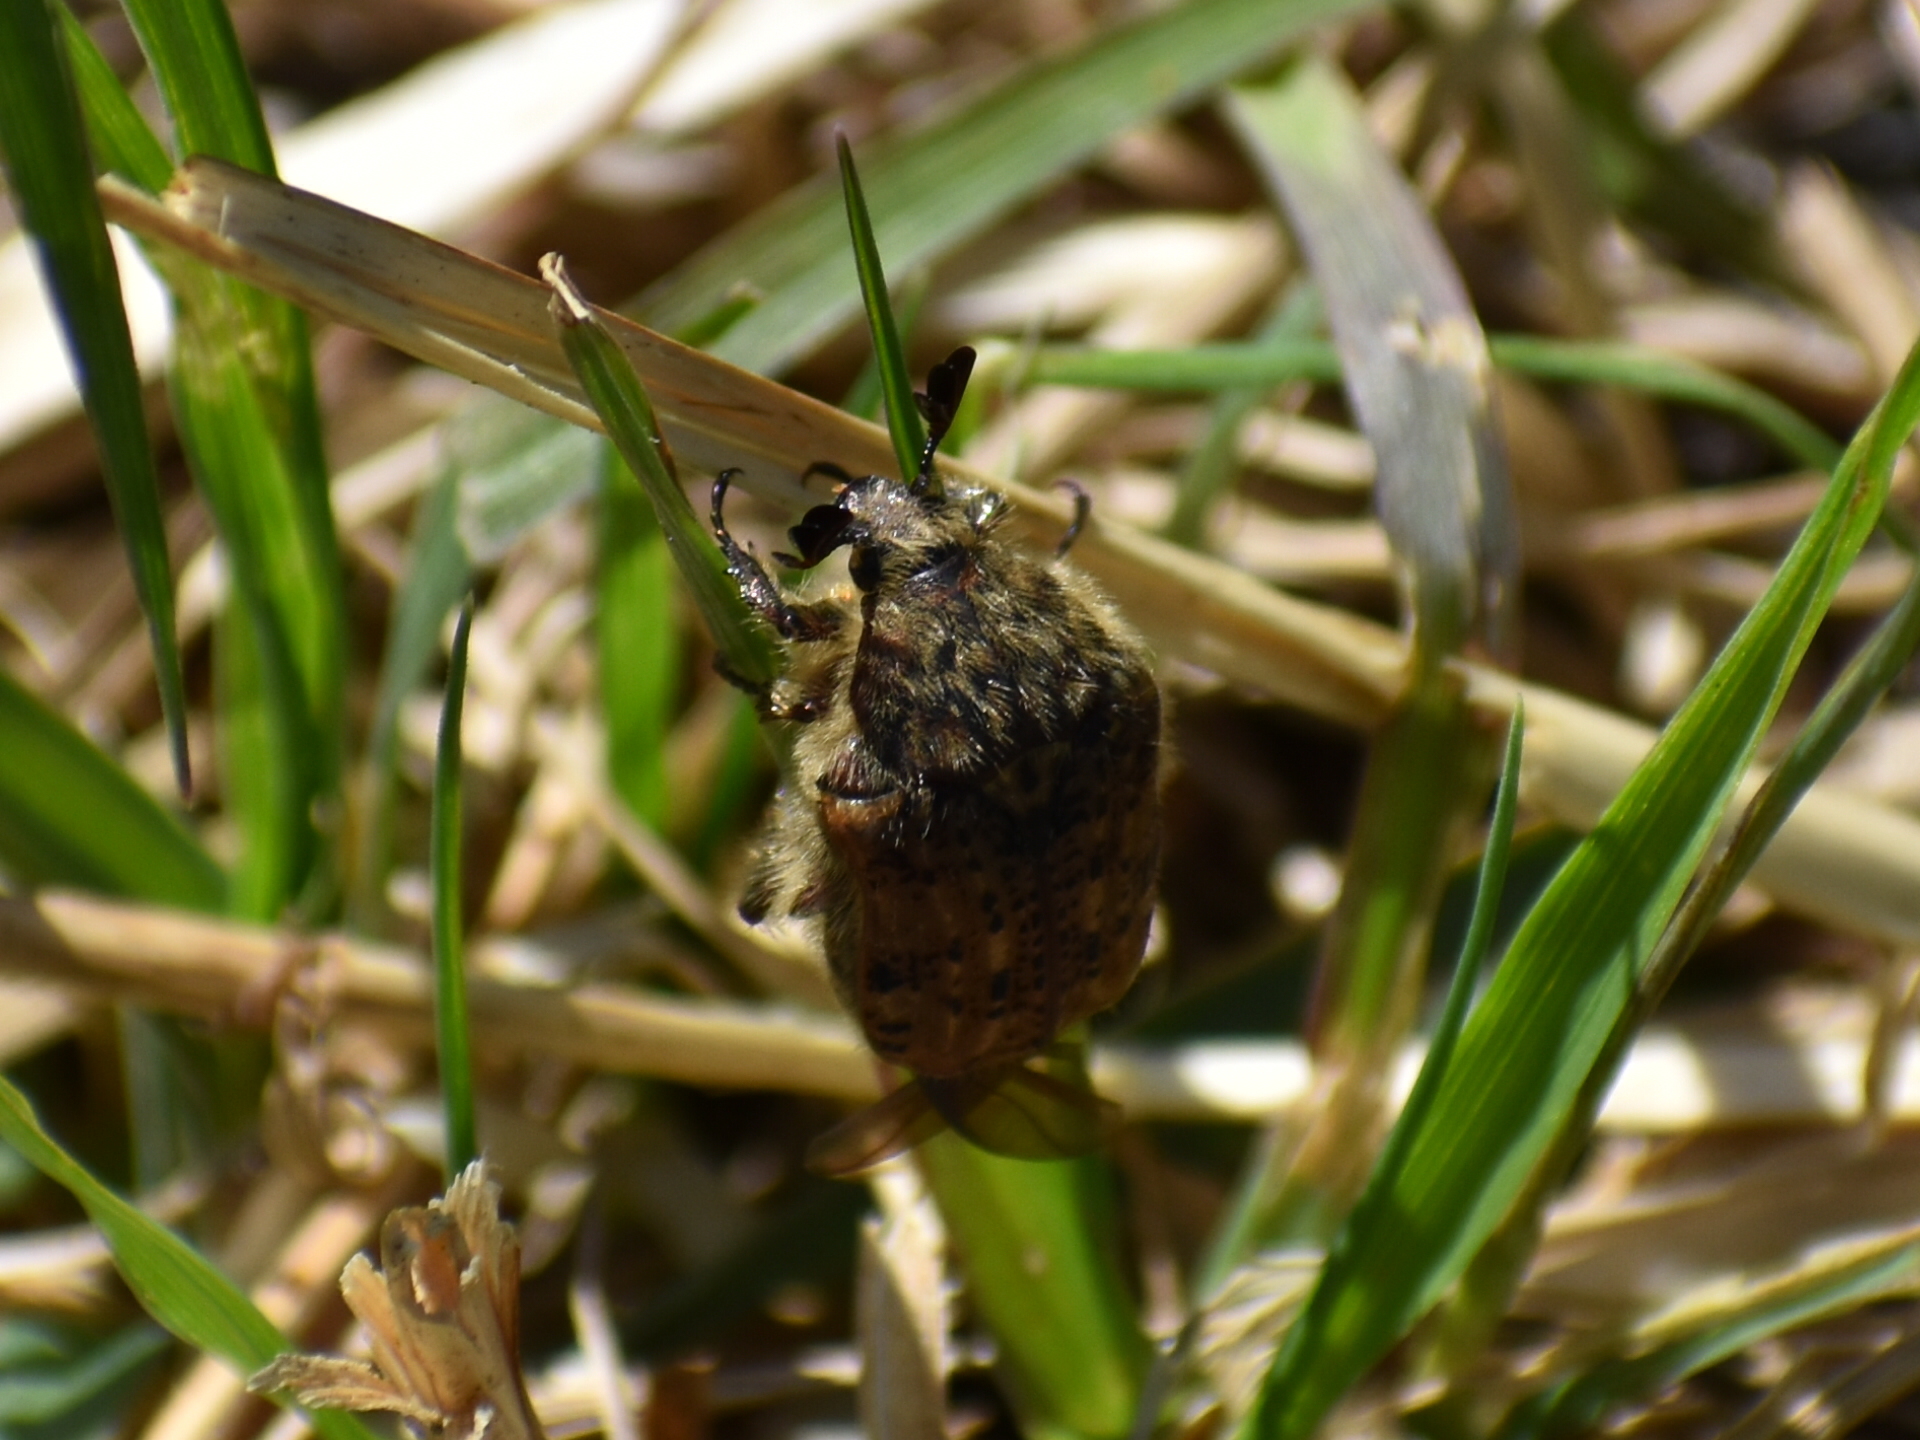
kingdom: Animalia
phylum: Arthropoda
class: Insecta
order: Coleoptera
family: Scarabaeidae
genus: Euphoria
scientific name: Euphoria inda
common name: Bumble flower beetle
